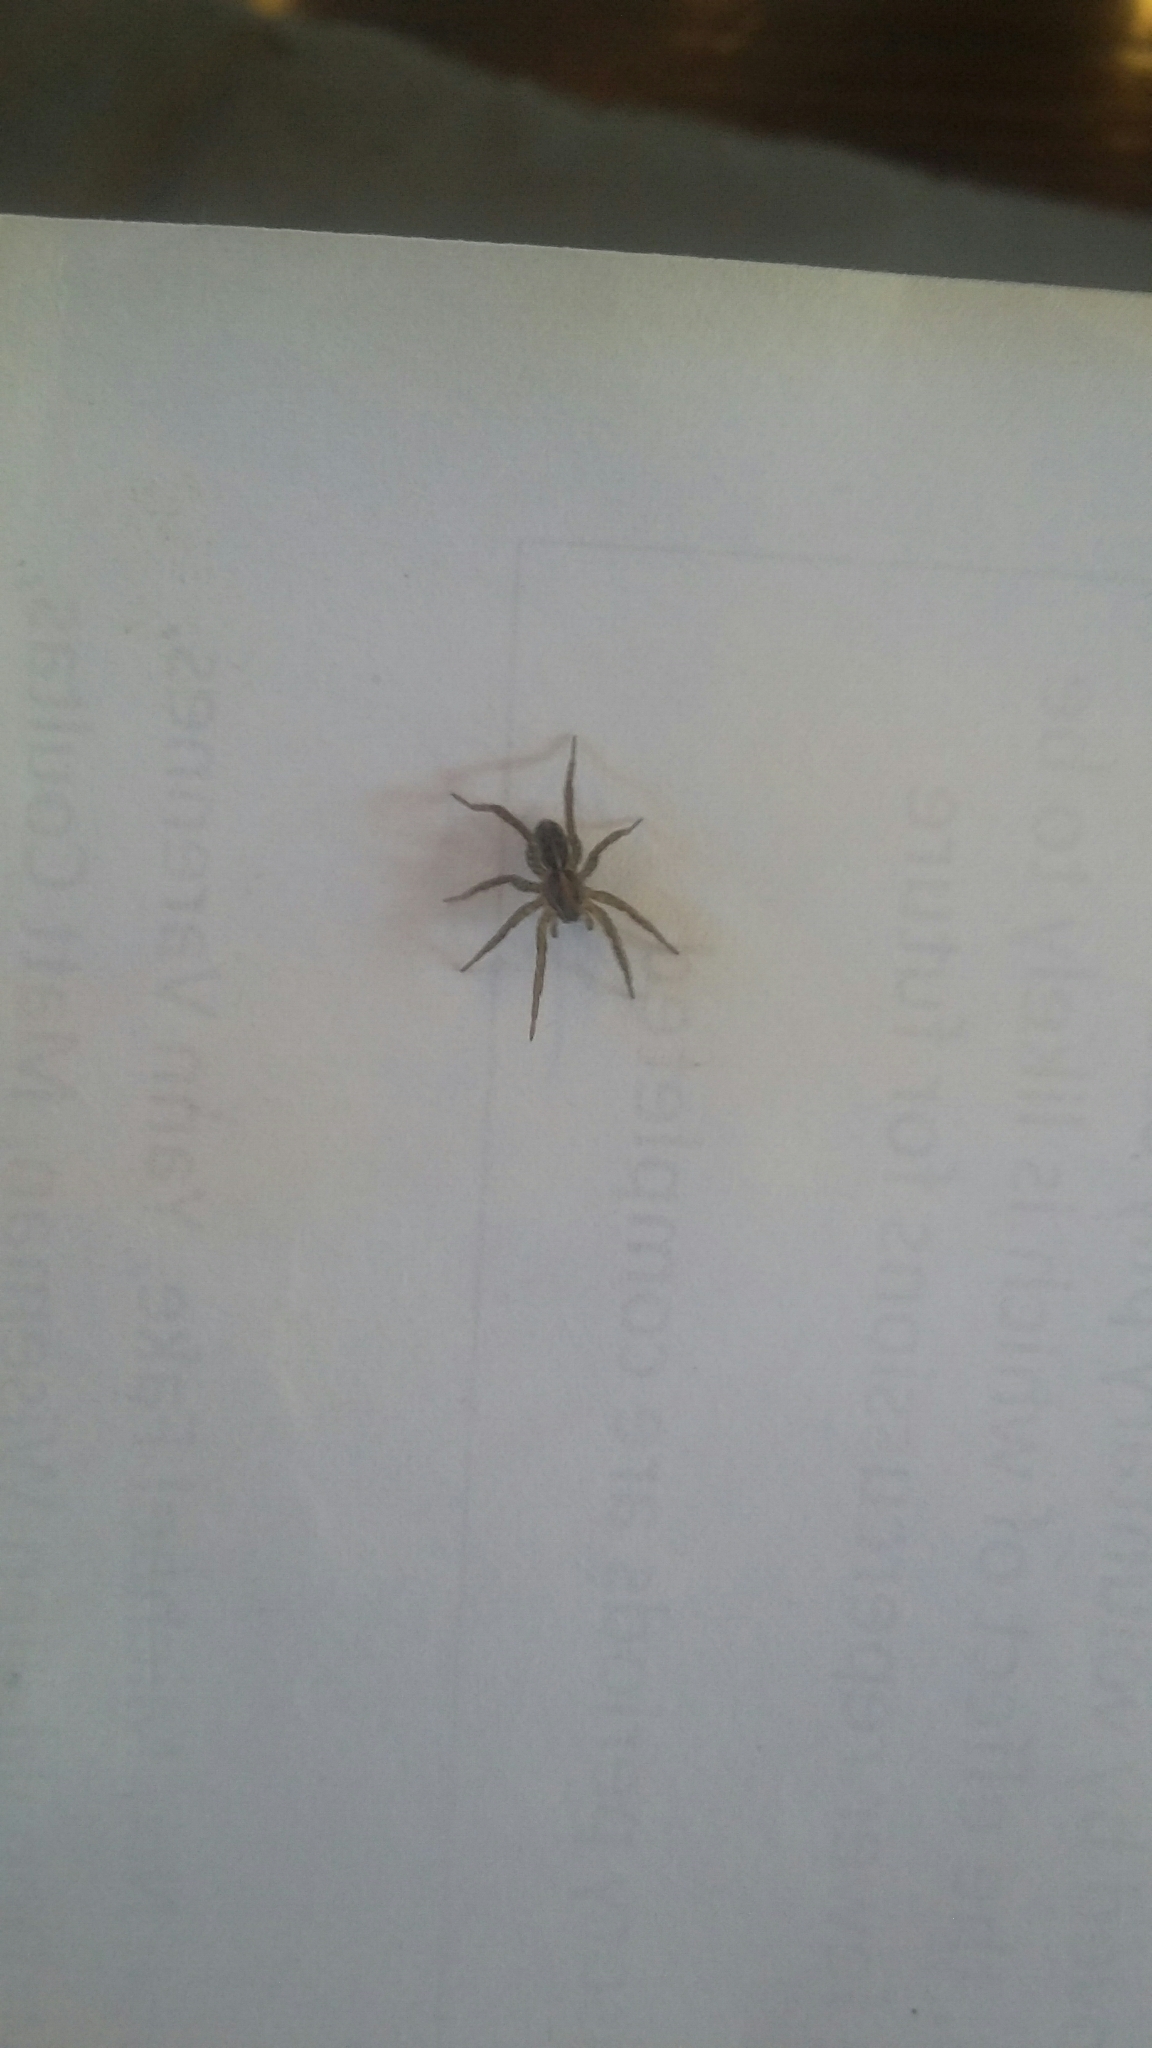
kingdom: Animalia
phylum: Arthropoda
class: Arachnida
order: Araneae
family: Lycosidae
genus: Anoteropsis
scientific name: Anoteropsis hilaris
